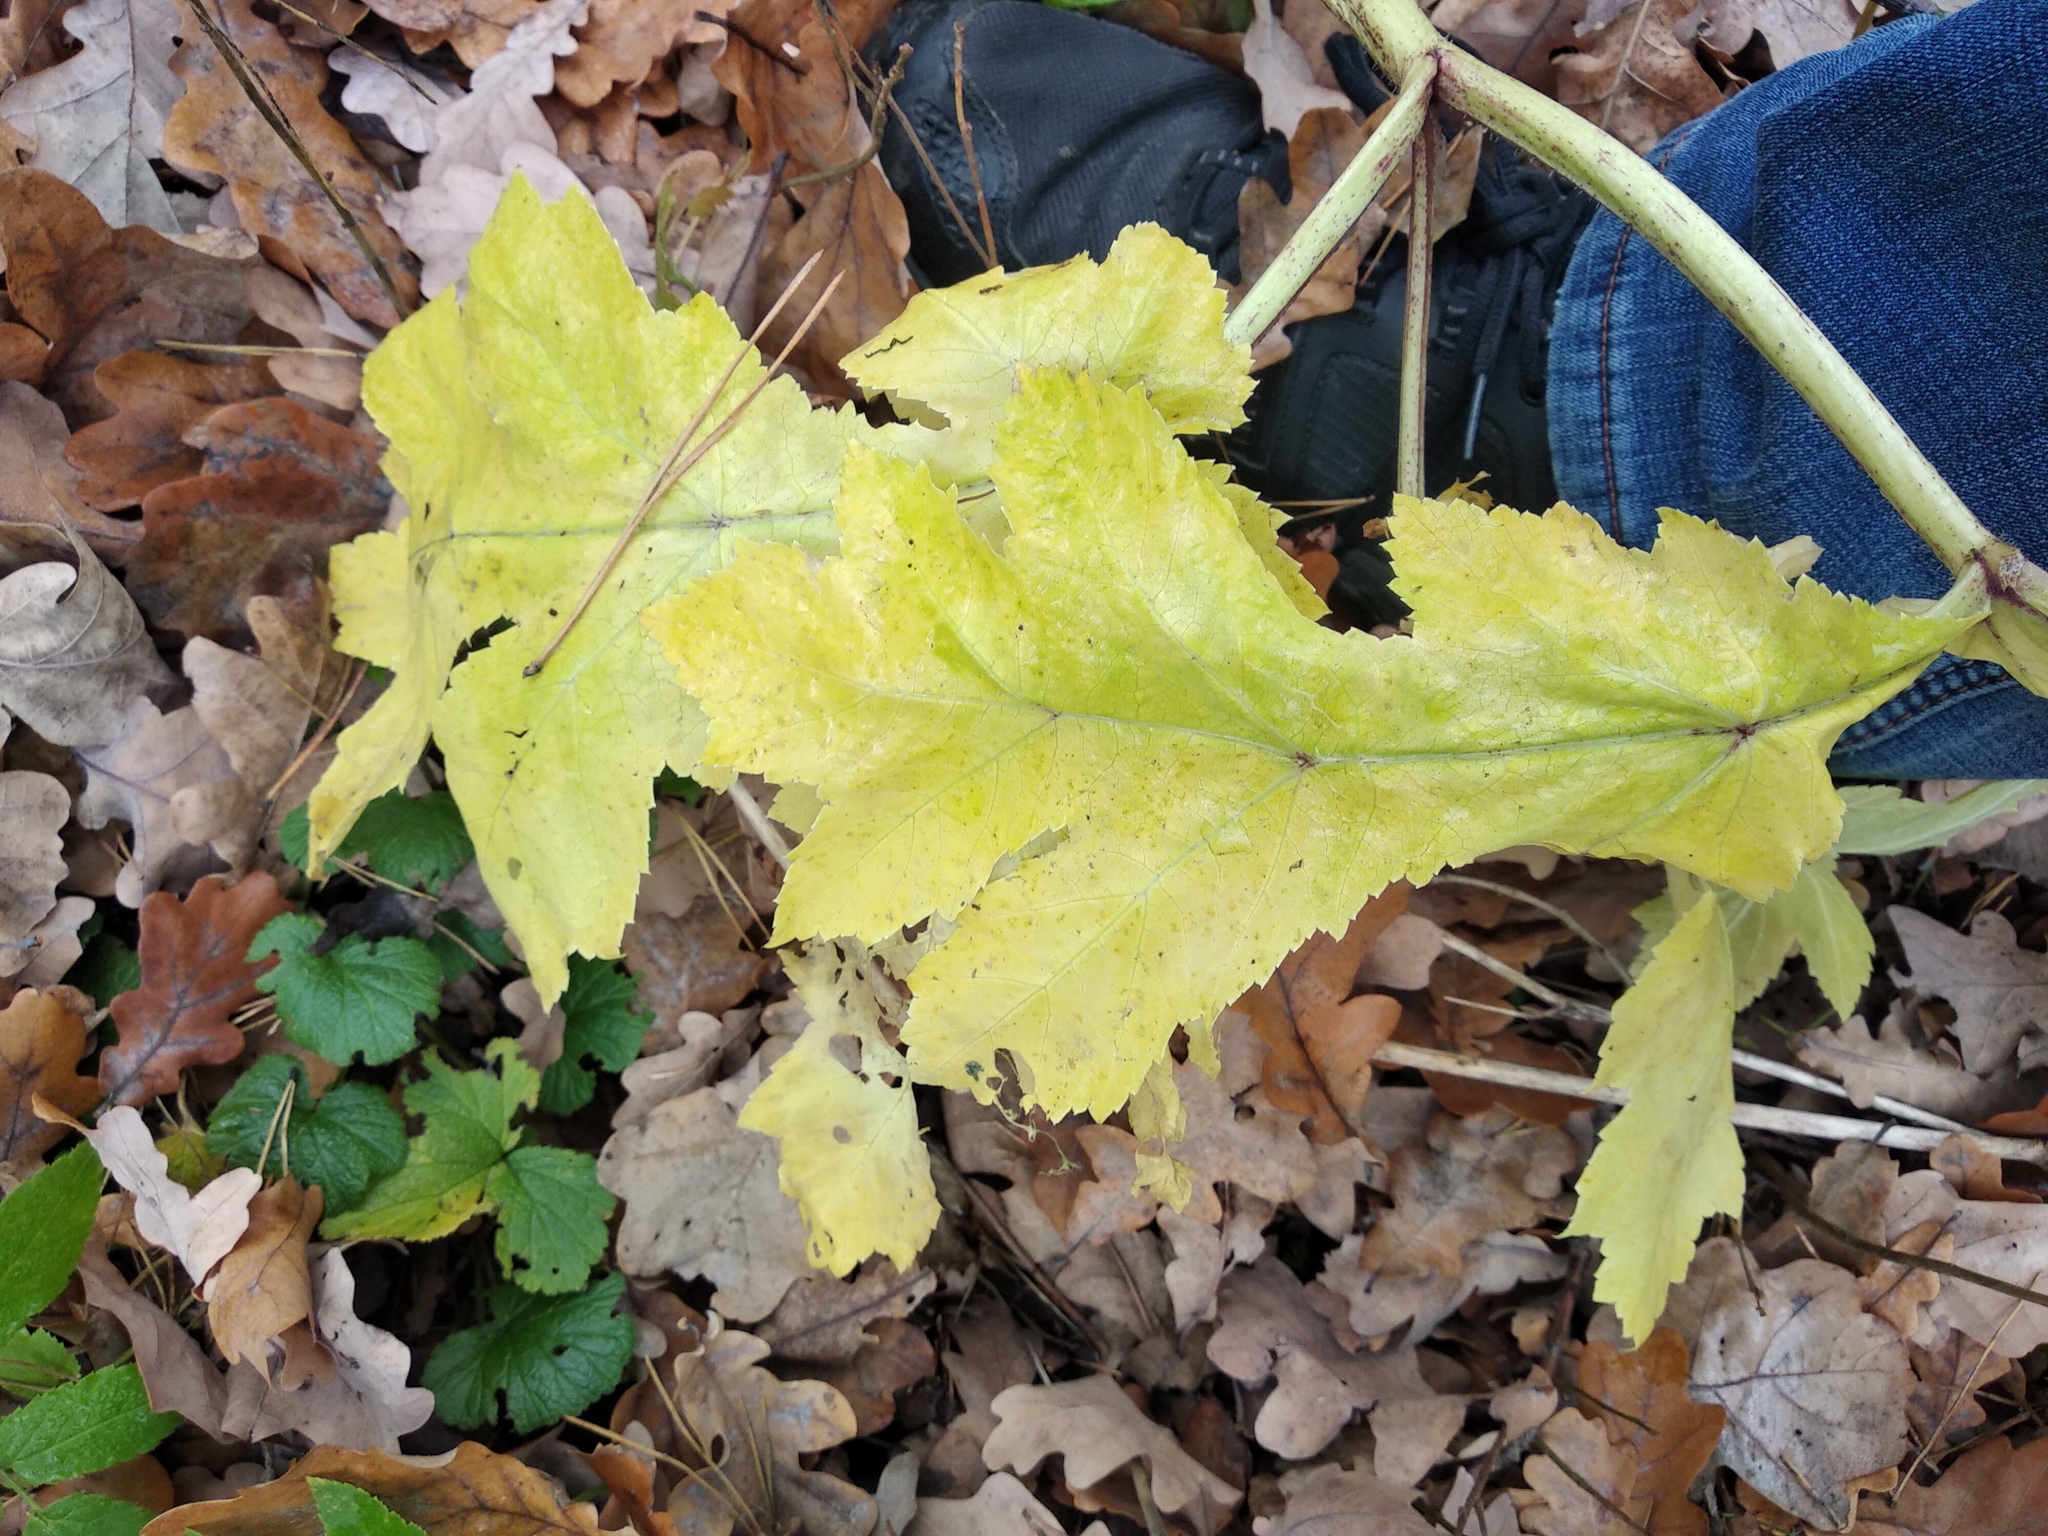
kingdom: Plantae
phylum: Tracheophyta
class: Magnoliopsida
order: Apiales
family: Apiaceae
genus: Heracleum
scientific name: Heracleum sosnowskyi
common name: Sosnowsky's hogweed
